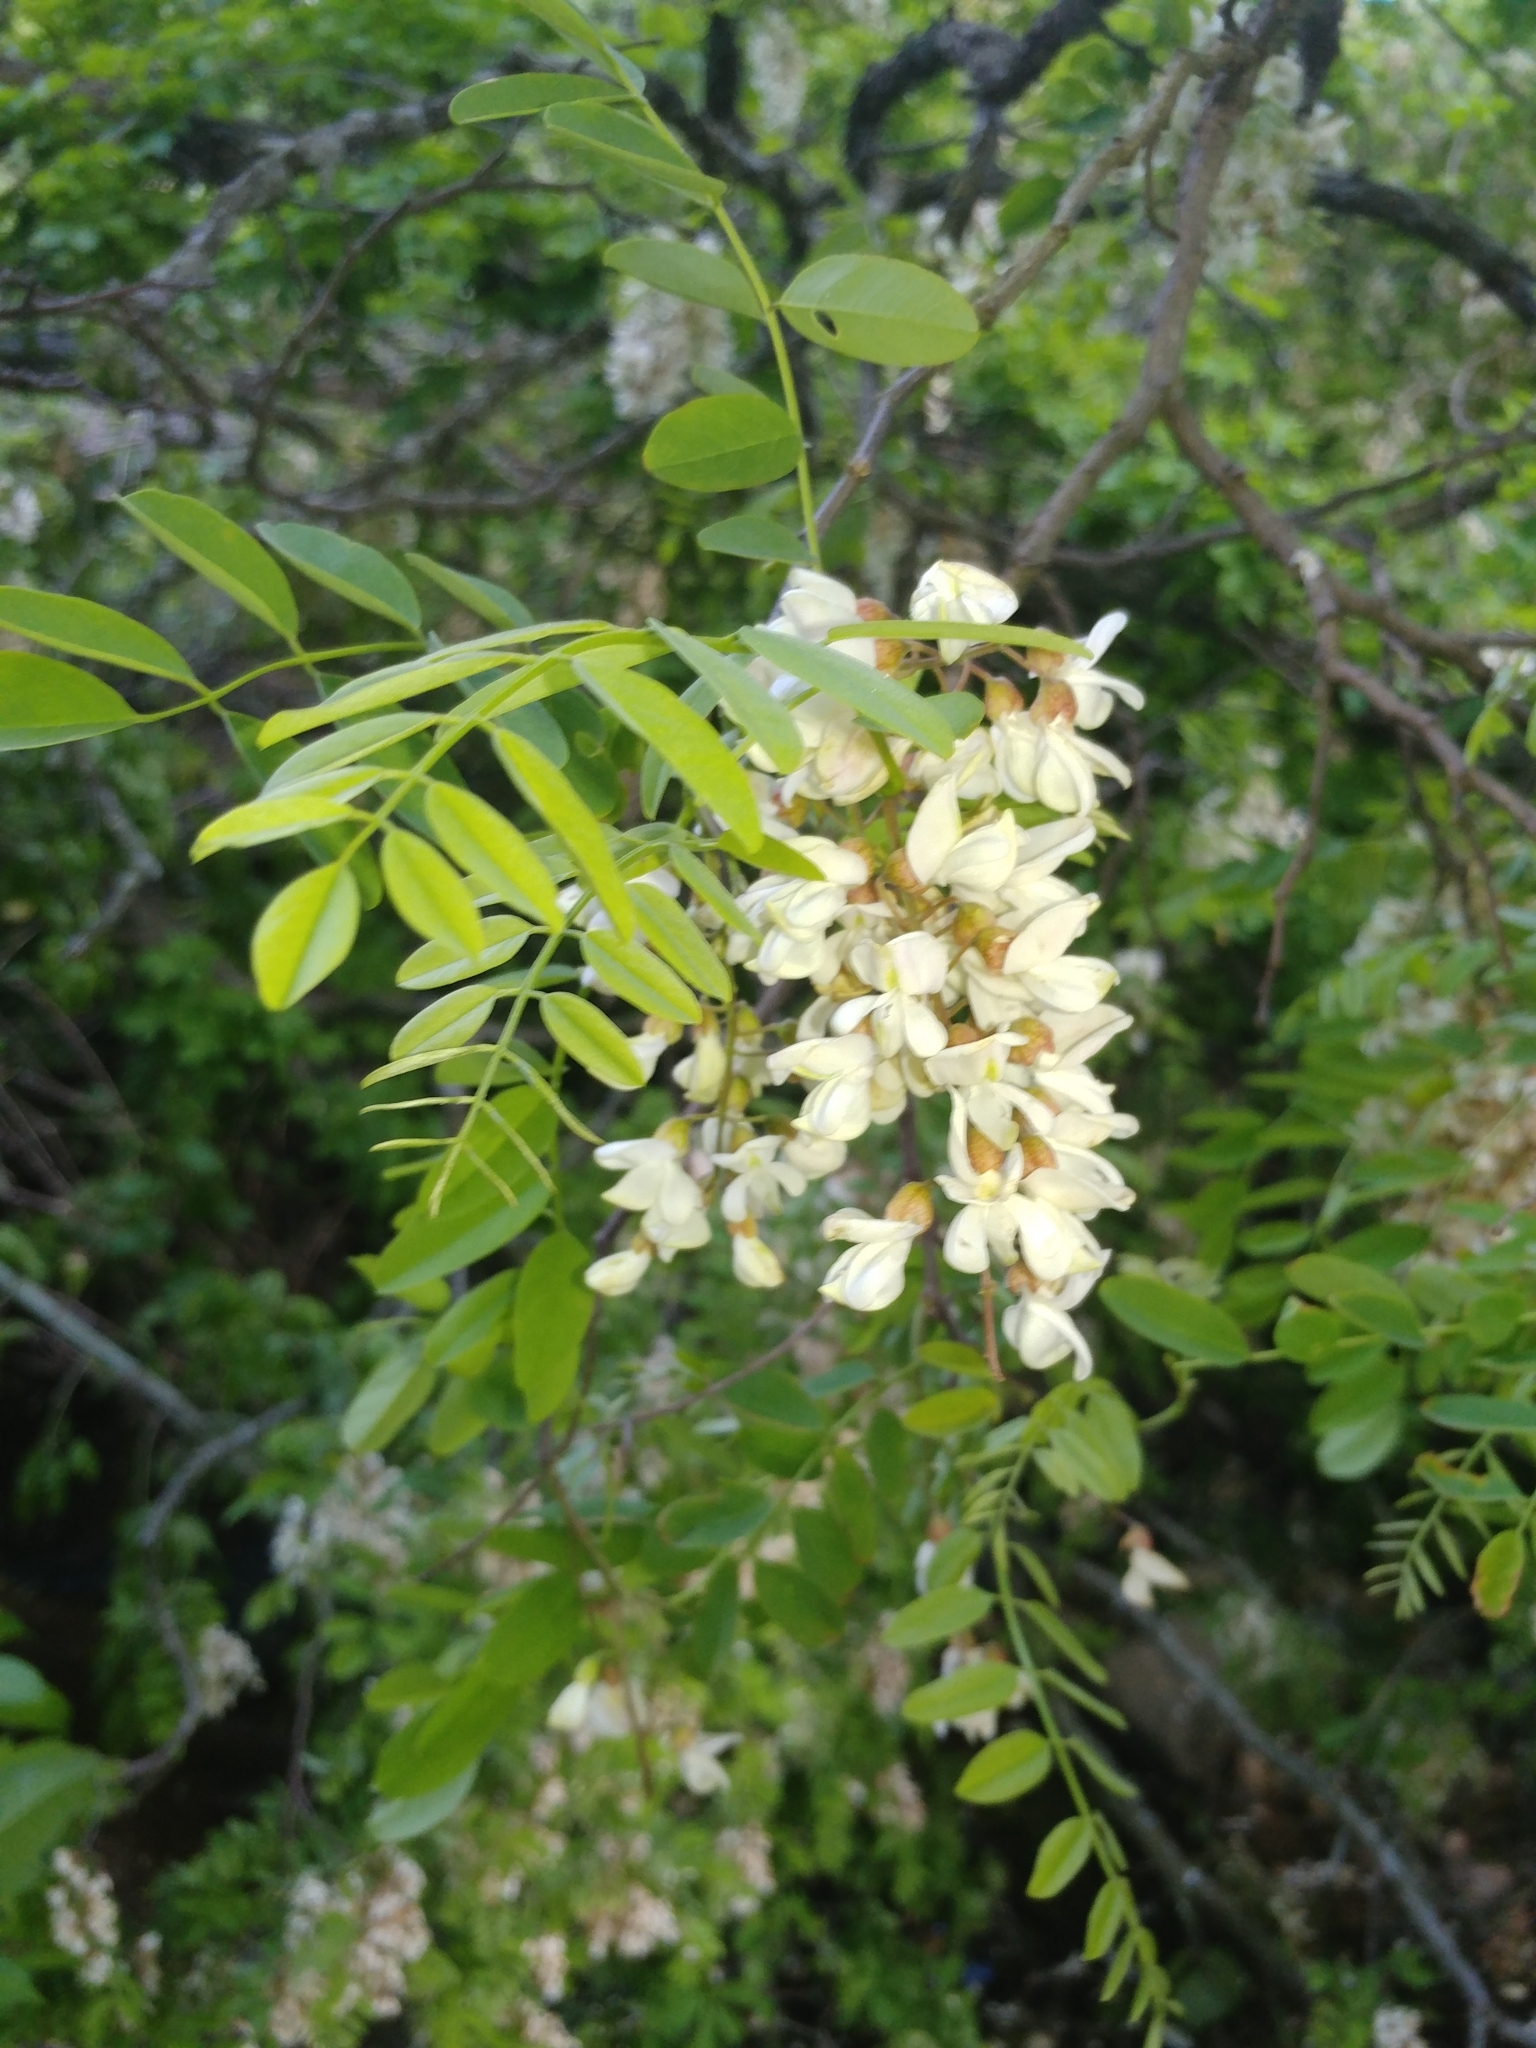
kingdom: Plantae
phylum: Tracheophyta
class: Magnoliopsida
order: Fabales
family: Fabaceae
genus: Robinia
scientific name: Robinia pseudoacacia
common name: Black locust
